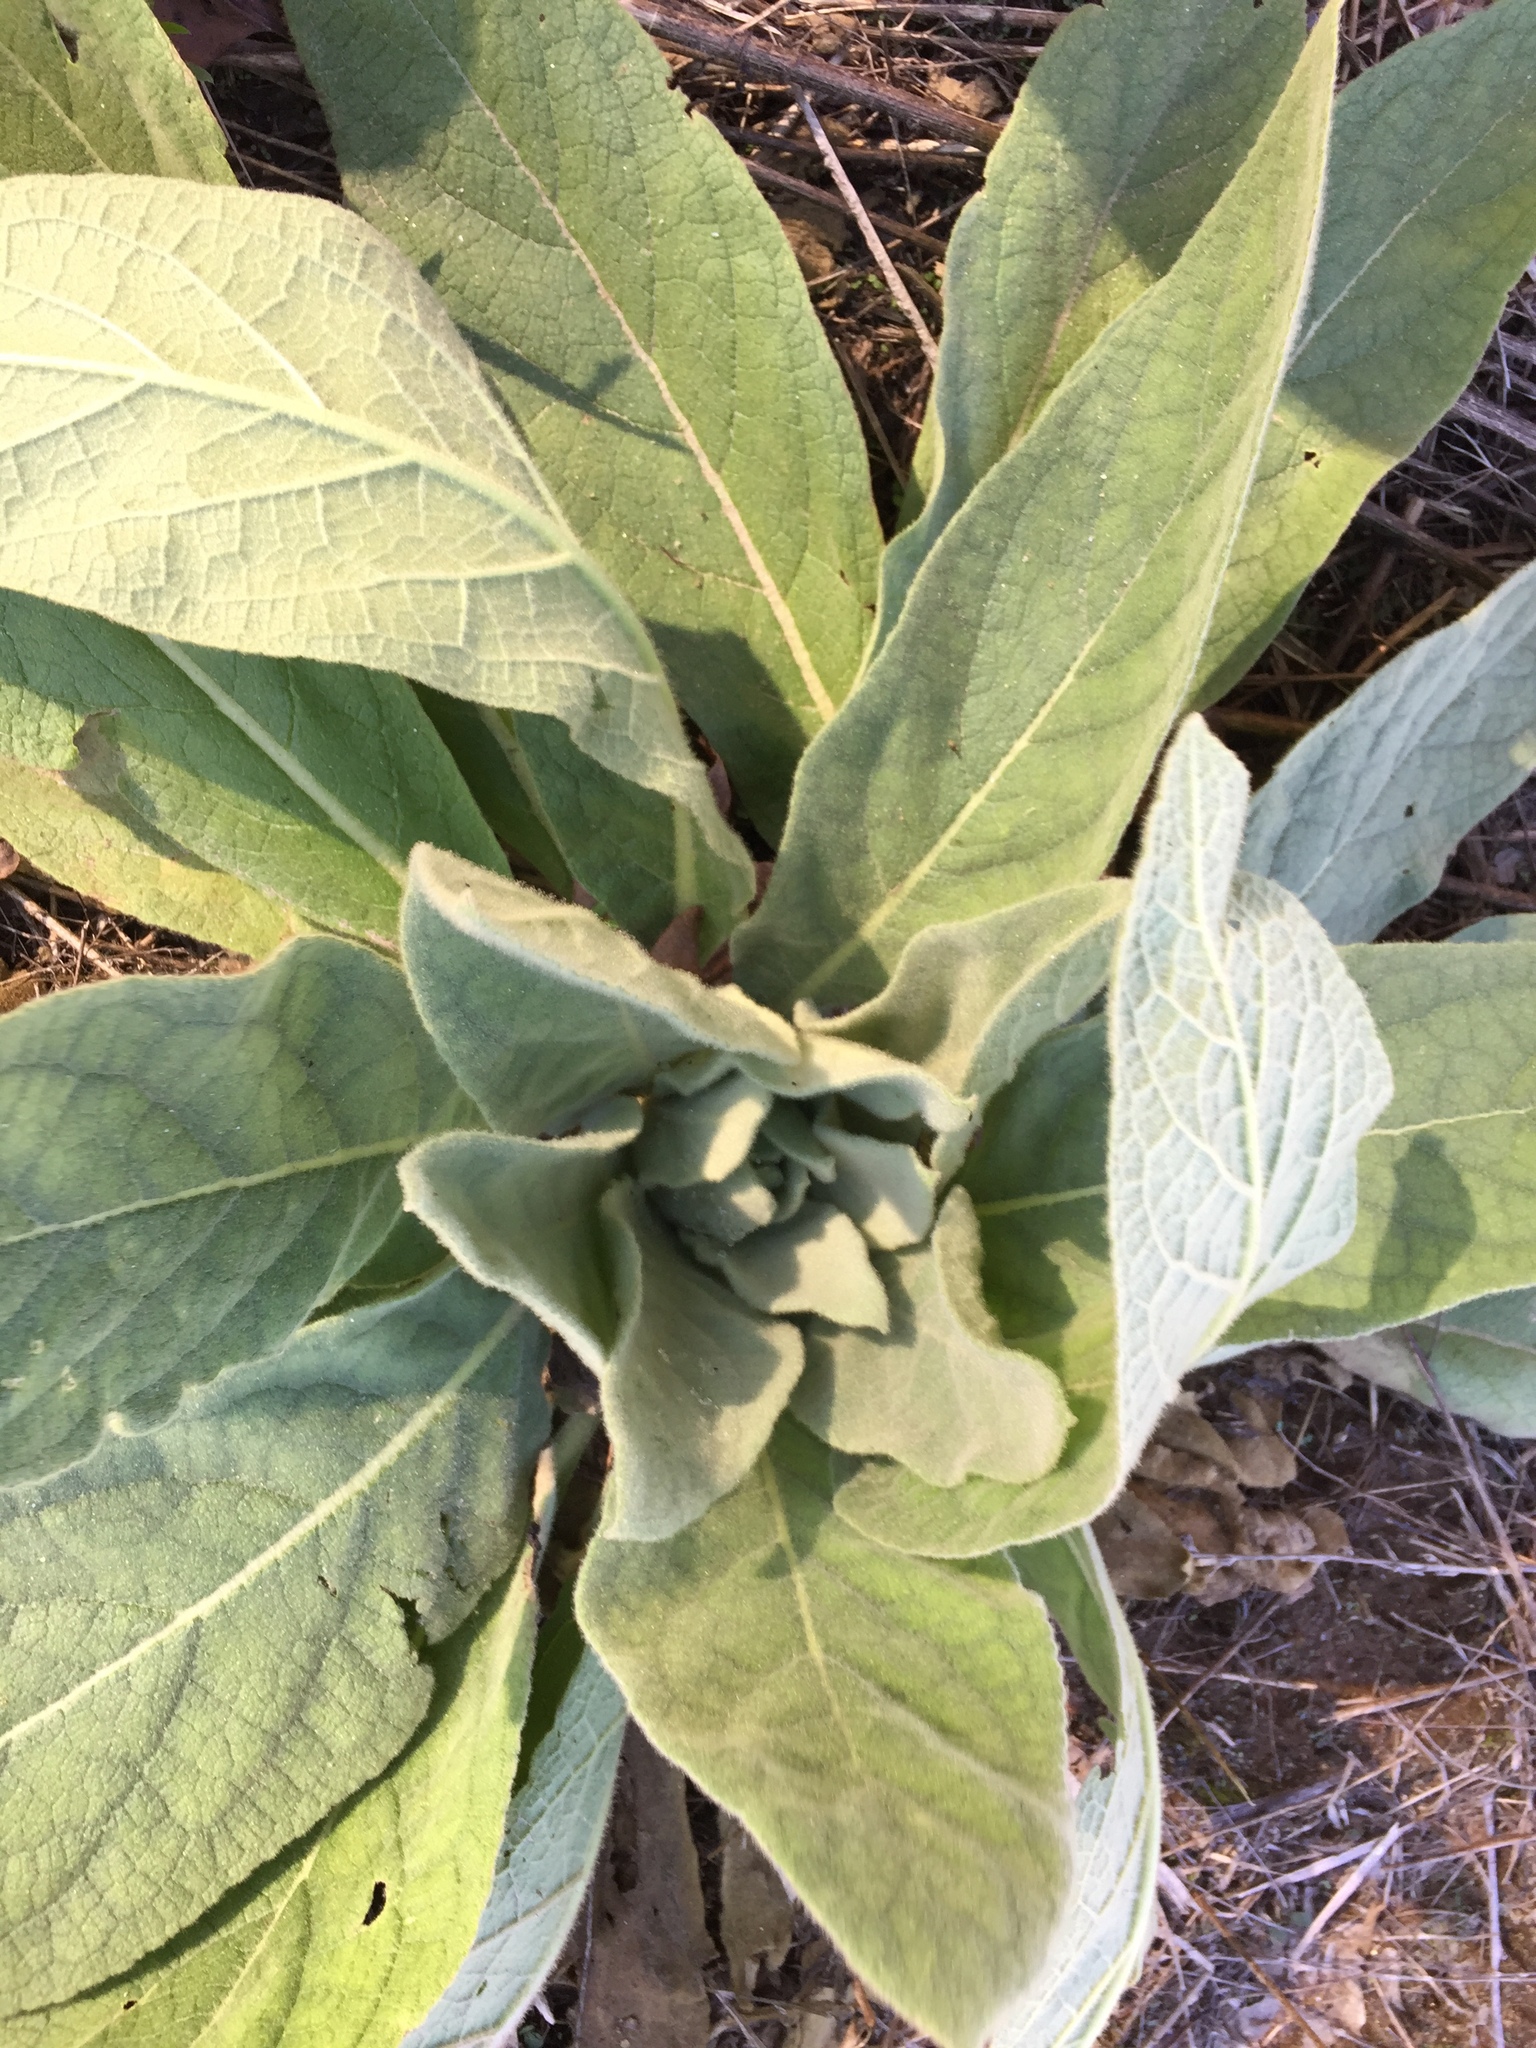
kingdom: Plantae
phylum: Tracheophyta
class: Magnoliopsida
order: Lamiales
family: Scrophulariaceae
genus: Verbascum
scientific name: Verbascum thapsus
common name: Common mullein
